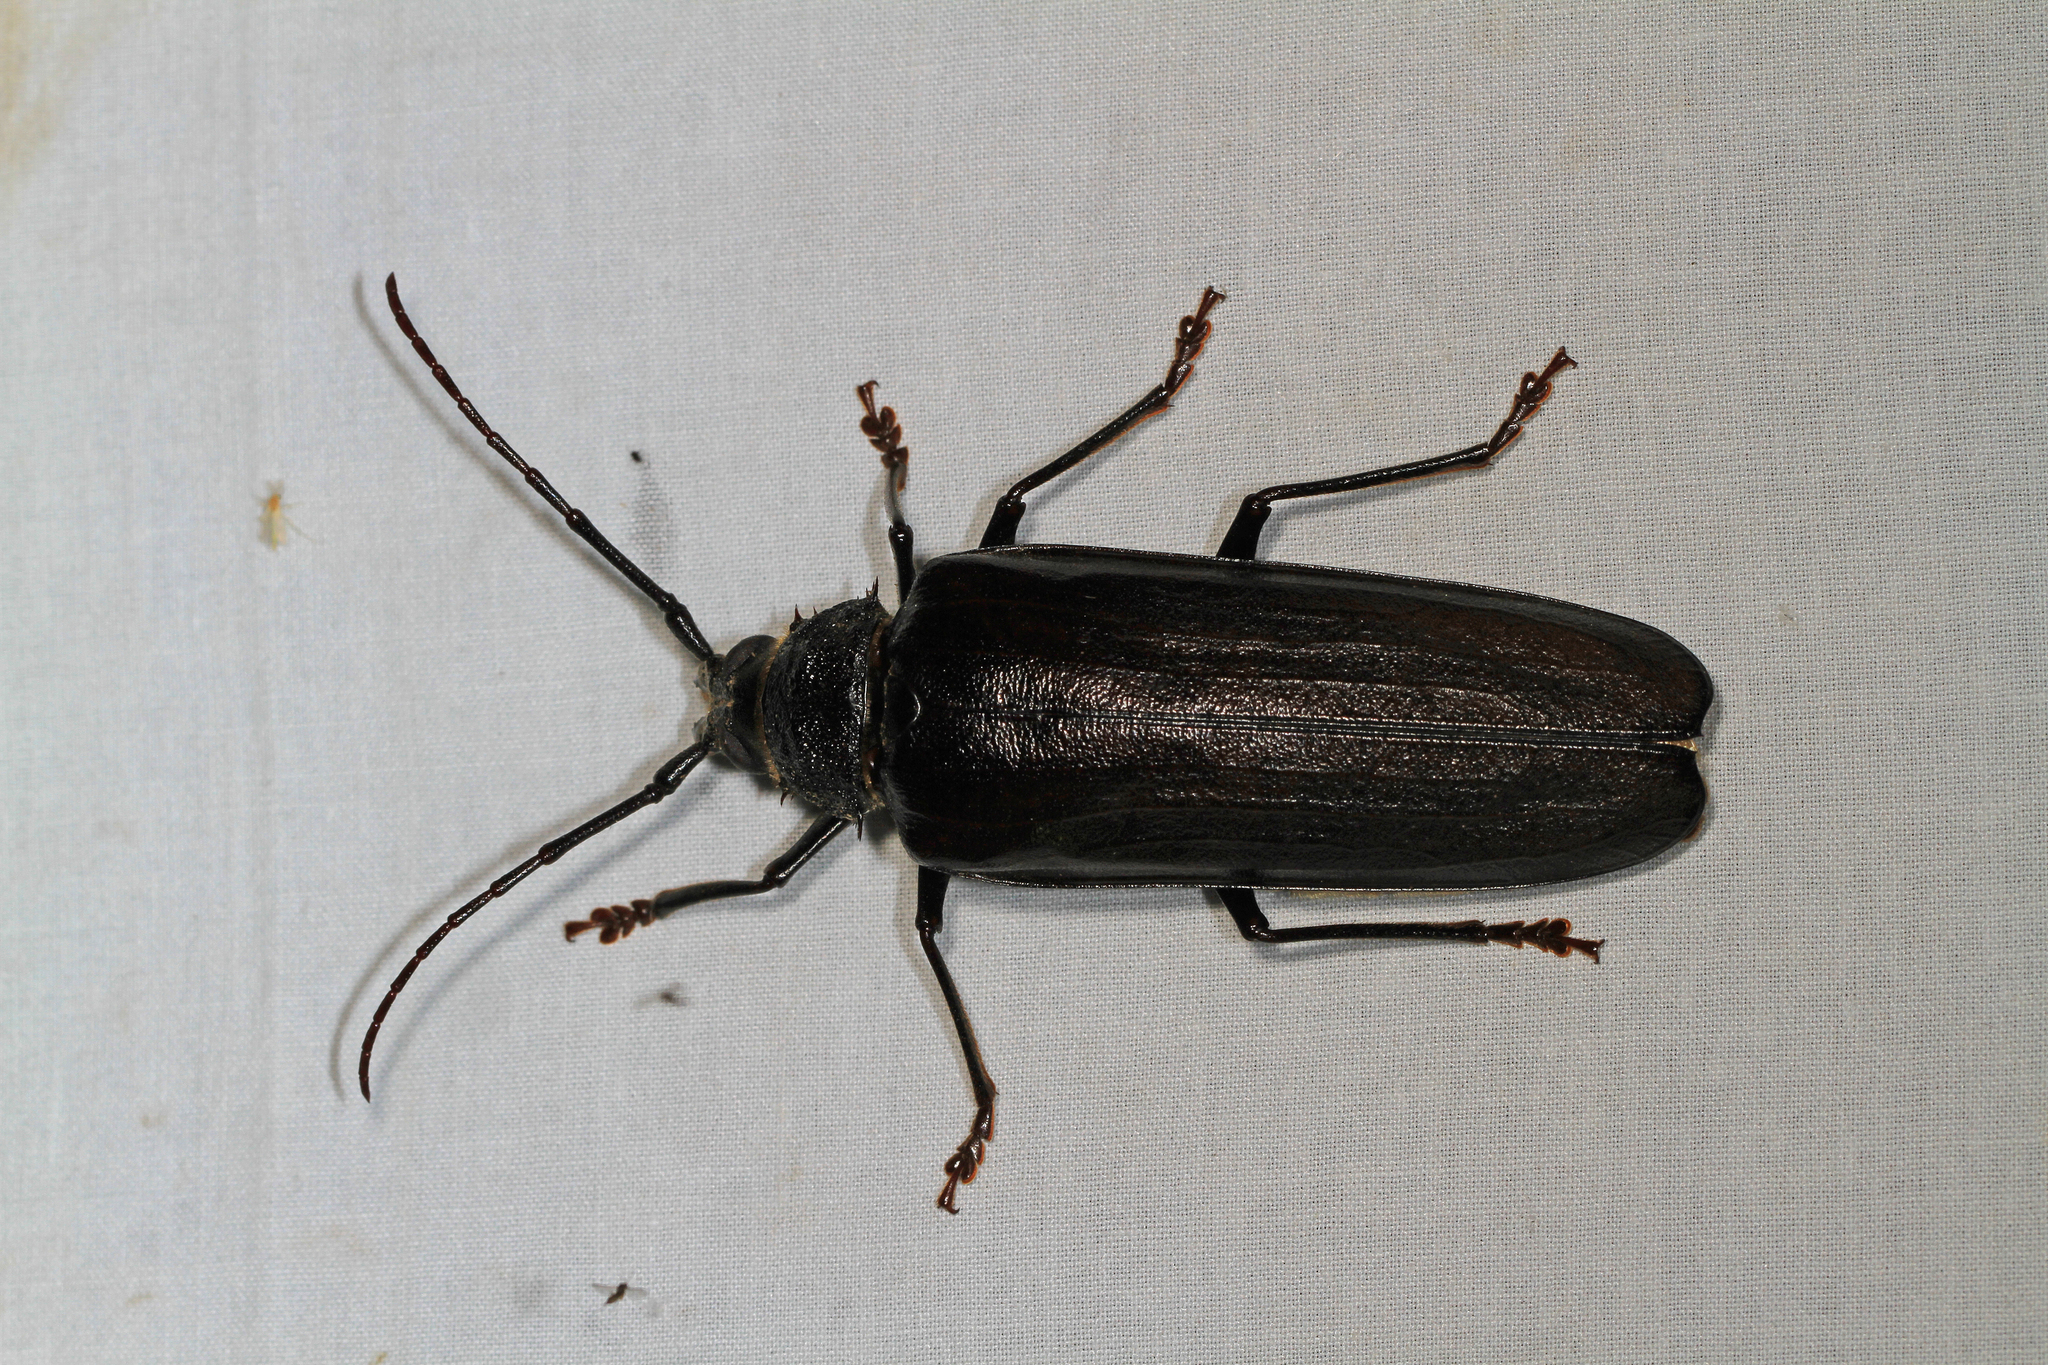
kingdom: Animalia
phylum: Arthropoda
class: Insecta
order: Coleoptera
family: Cerambycidae
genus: Trichocnemis
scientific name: Trichocnemis spiculatus
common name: Long-horned beetle
